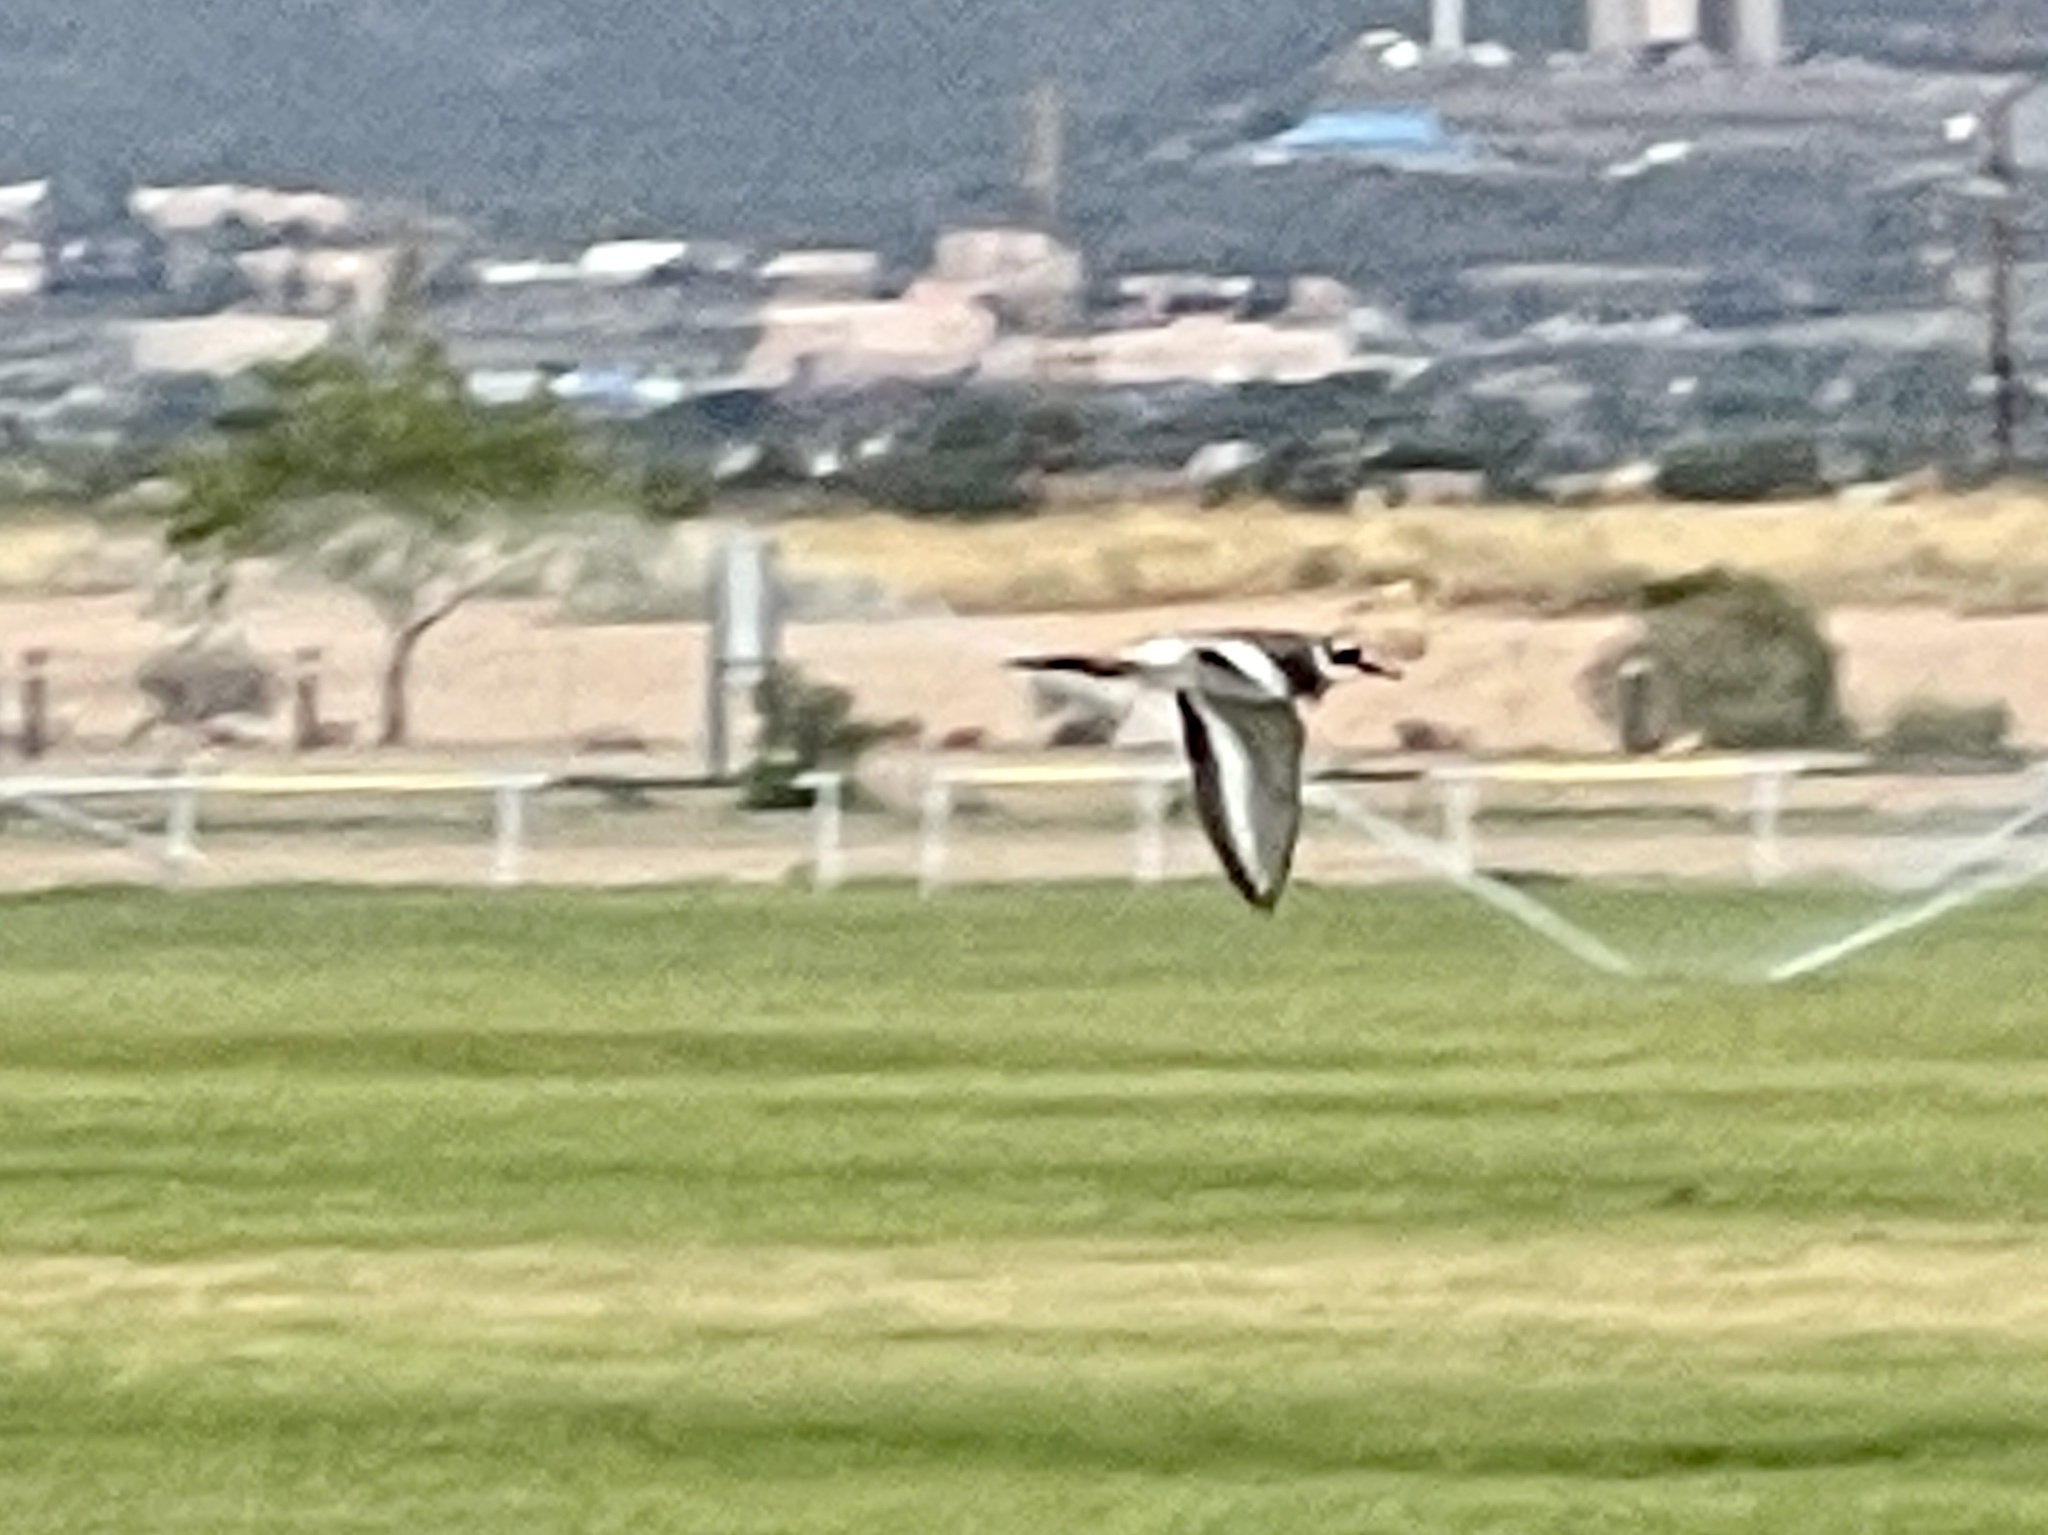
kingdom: Animalia
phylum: Chordata
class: Aves
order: Charadriiformes
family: Charadriidae
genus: Charadrius
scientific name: Charadrius vociferus
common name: Killdeer
